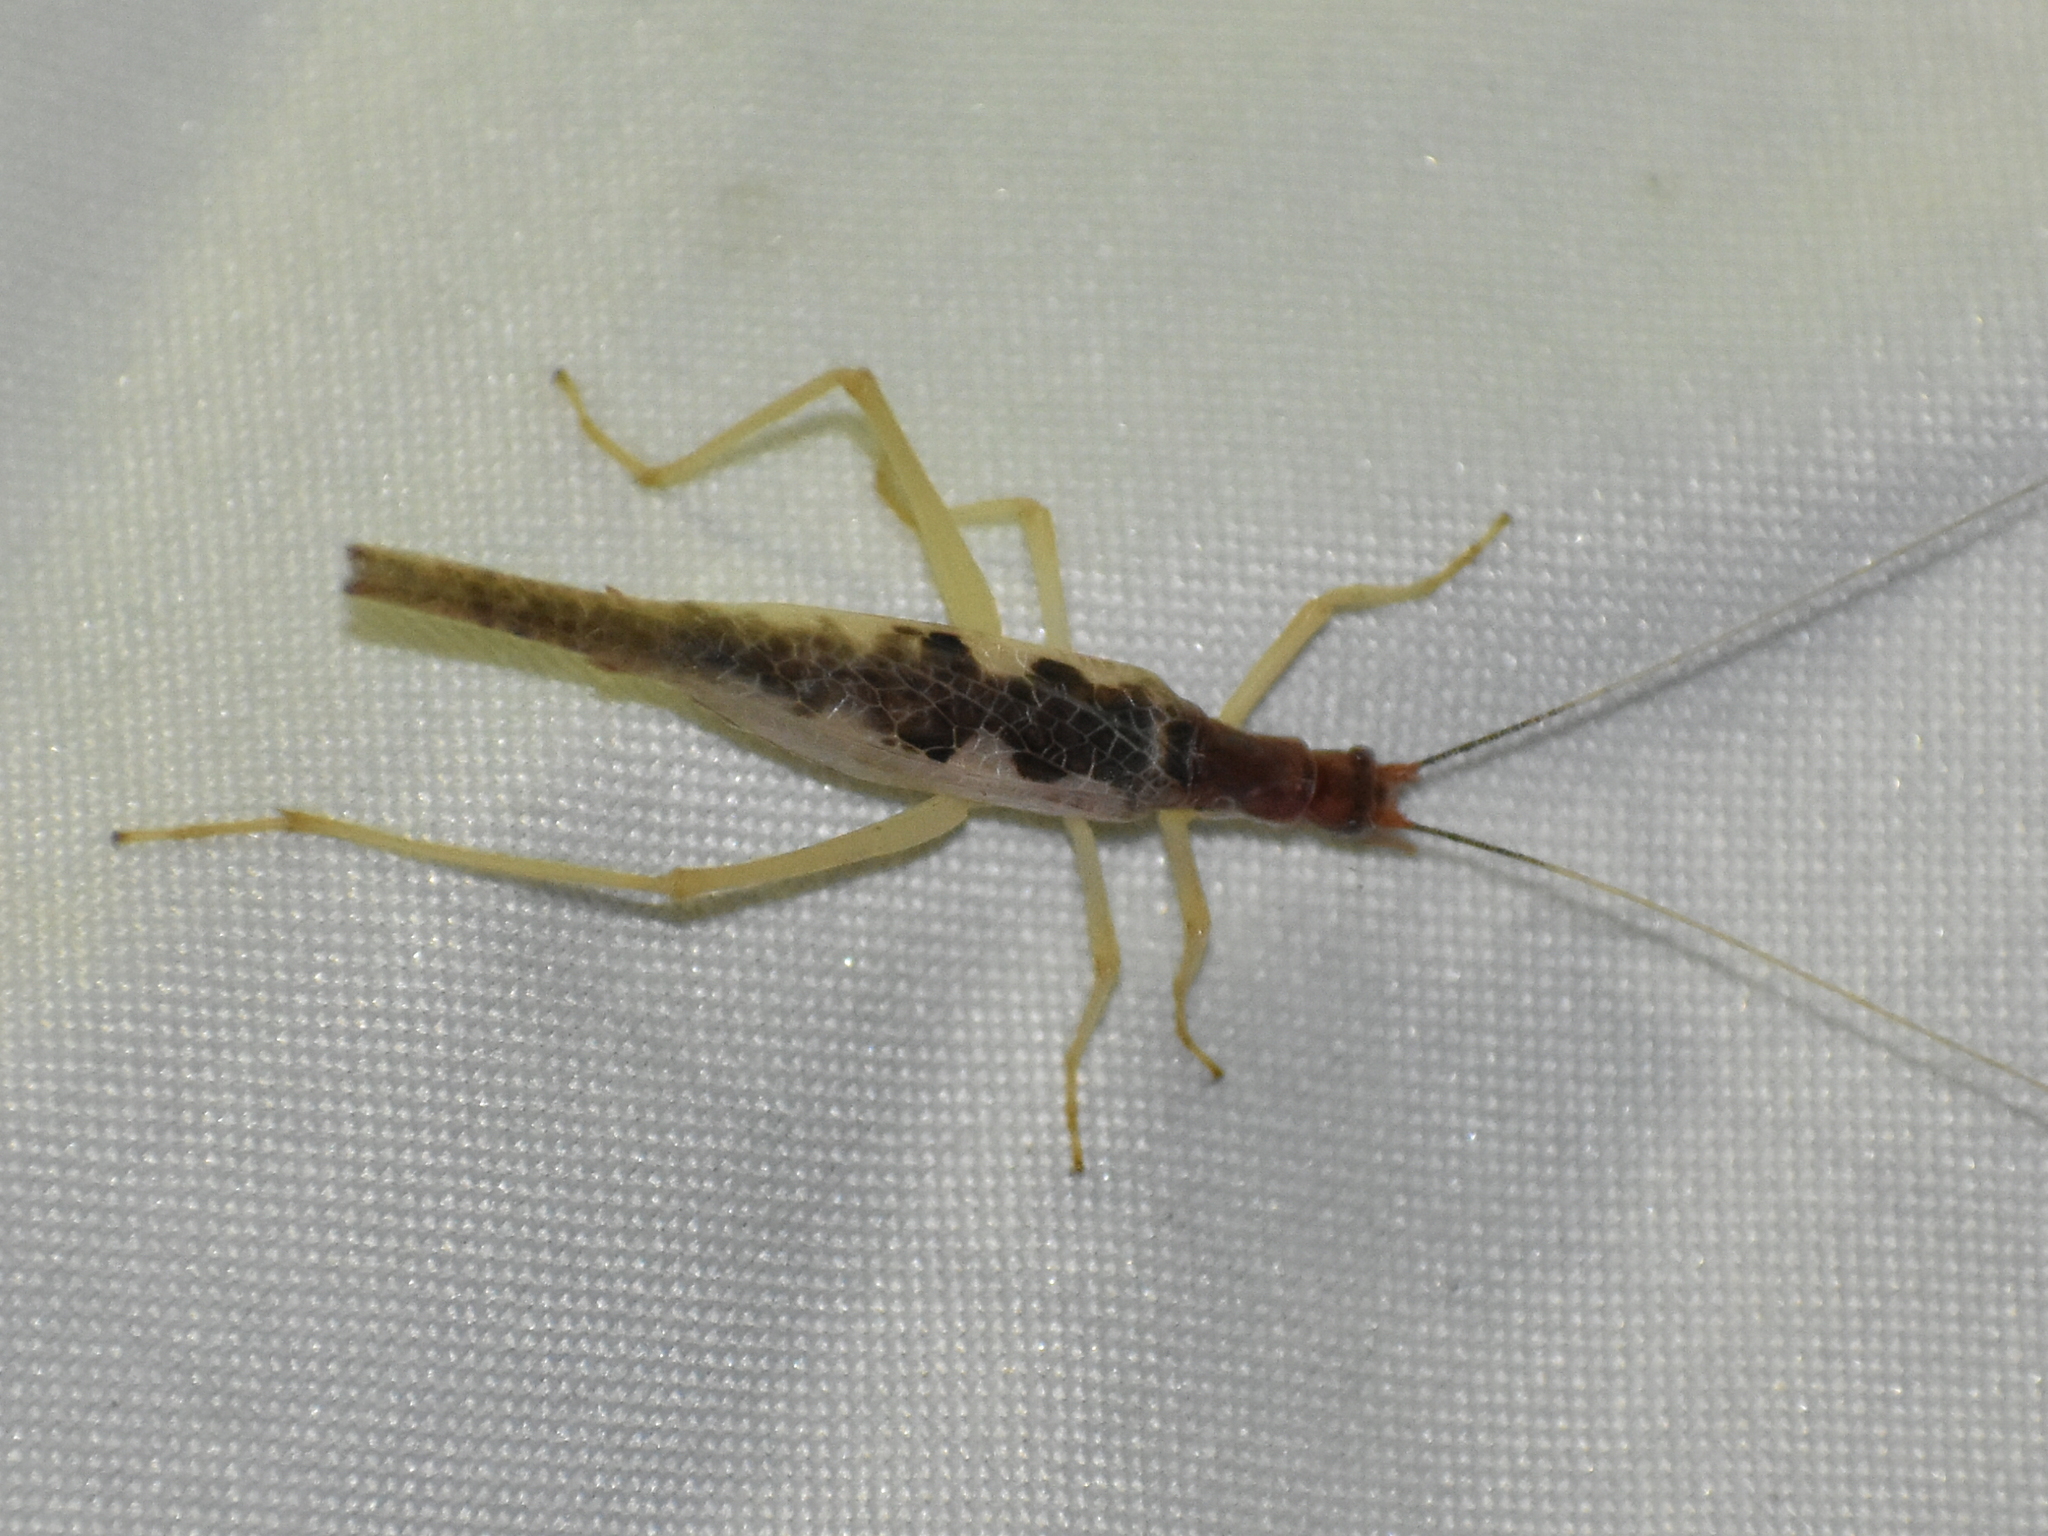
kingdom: Animalia
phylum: Arthropoda
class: Insecta
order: Orthoptera
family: Gryllidae
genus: Neoxabea
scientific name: Neoxabea bipunctata
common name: Two-spotted tree cricket
